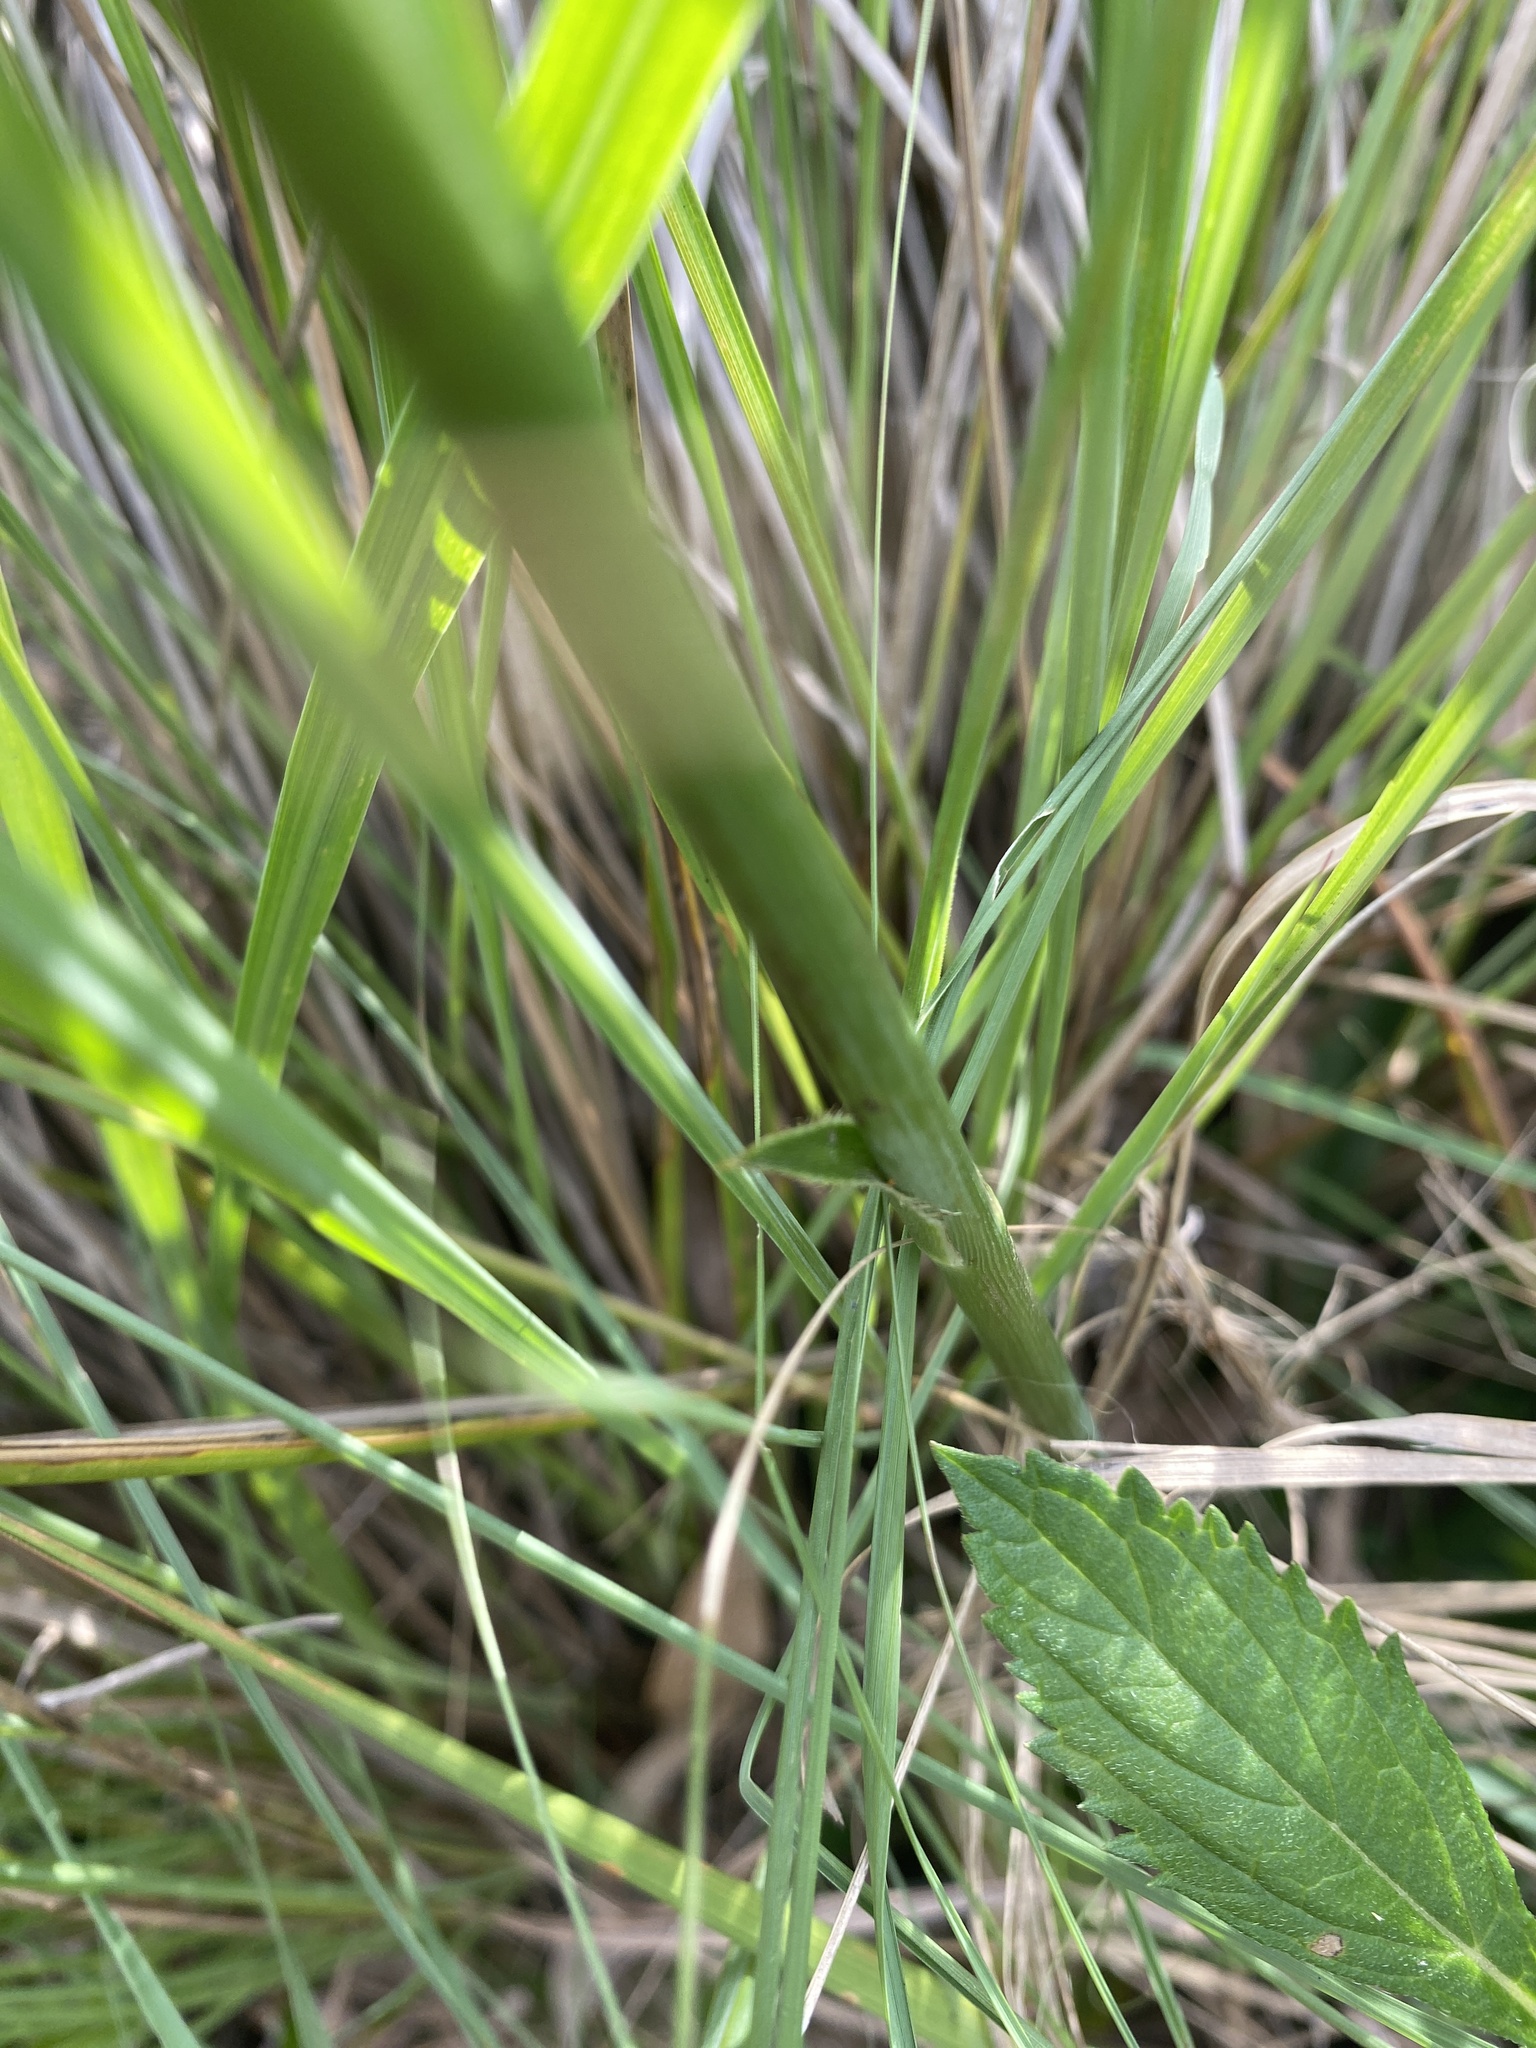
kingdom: Plantae
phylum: Tracheophyta
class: Magnoliopsida
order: Apiales
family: Apiaceae
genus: Eryngium
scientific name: Eryngium elegans
